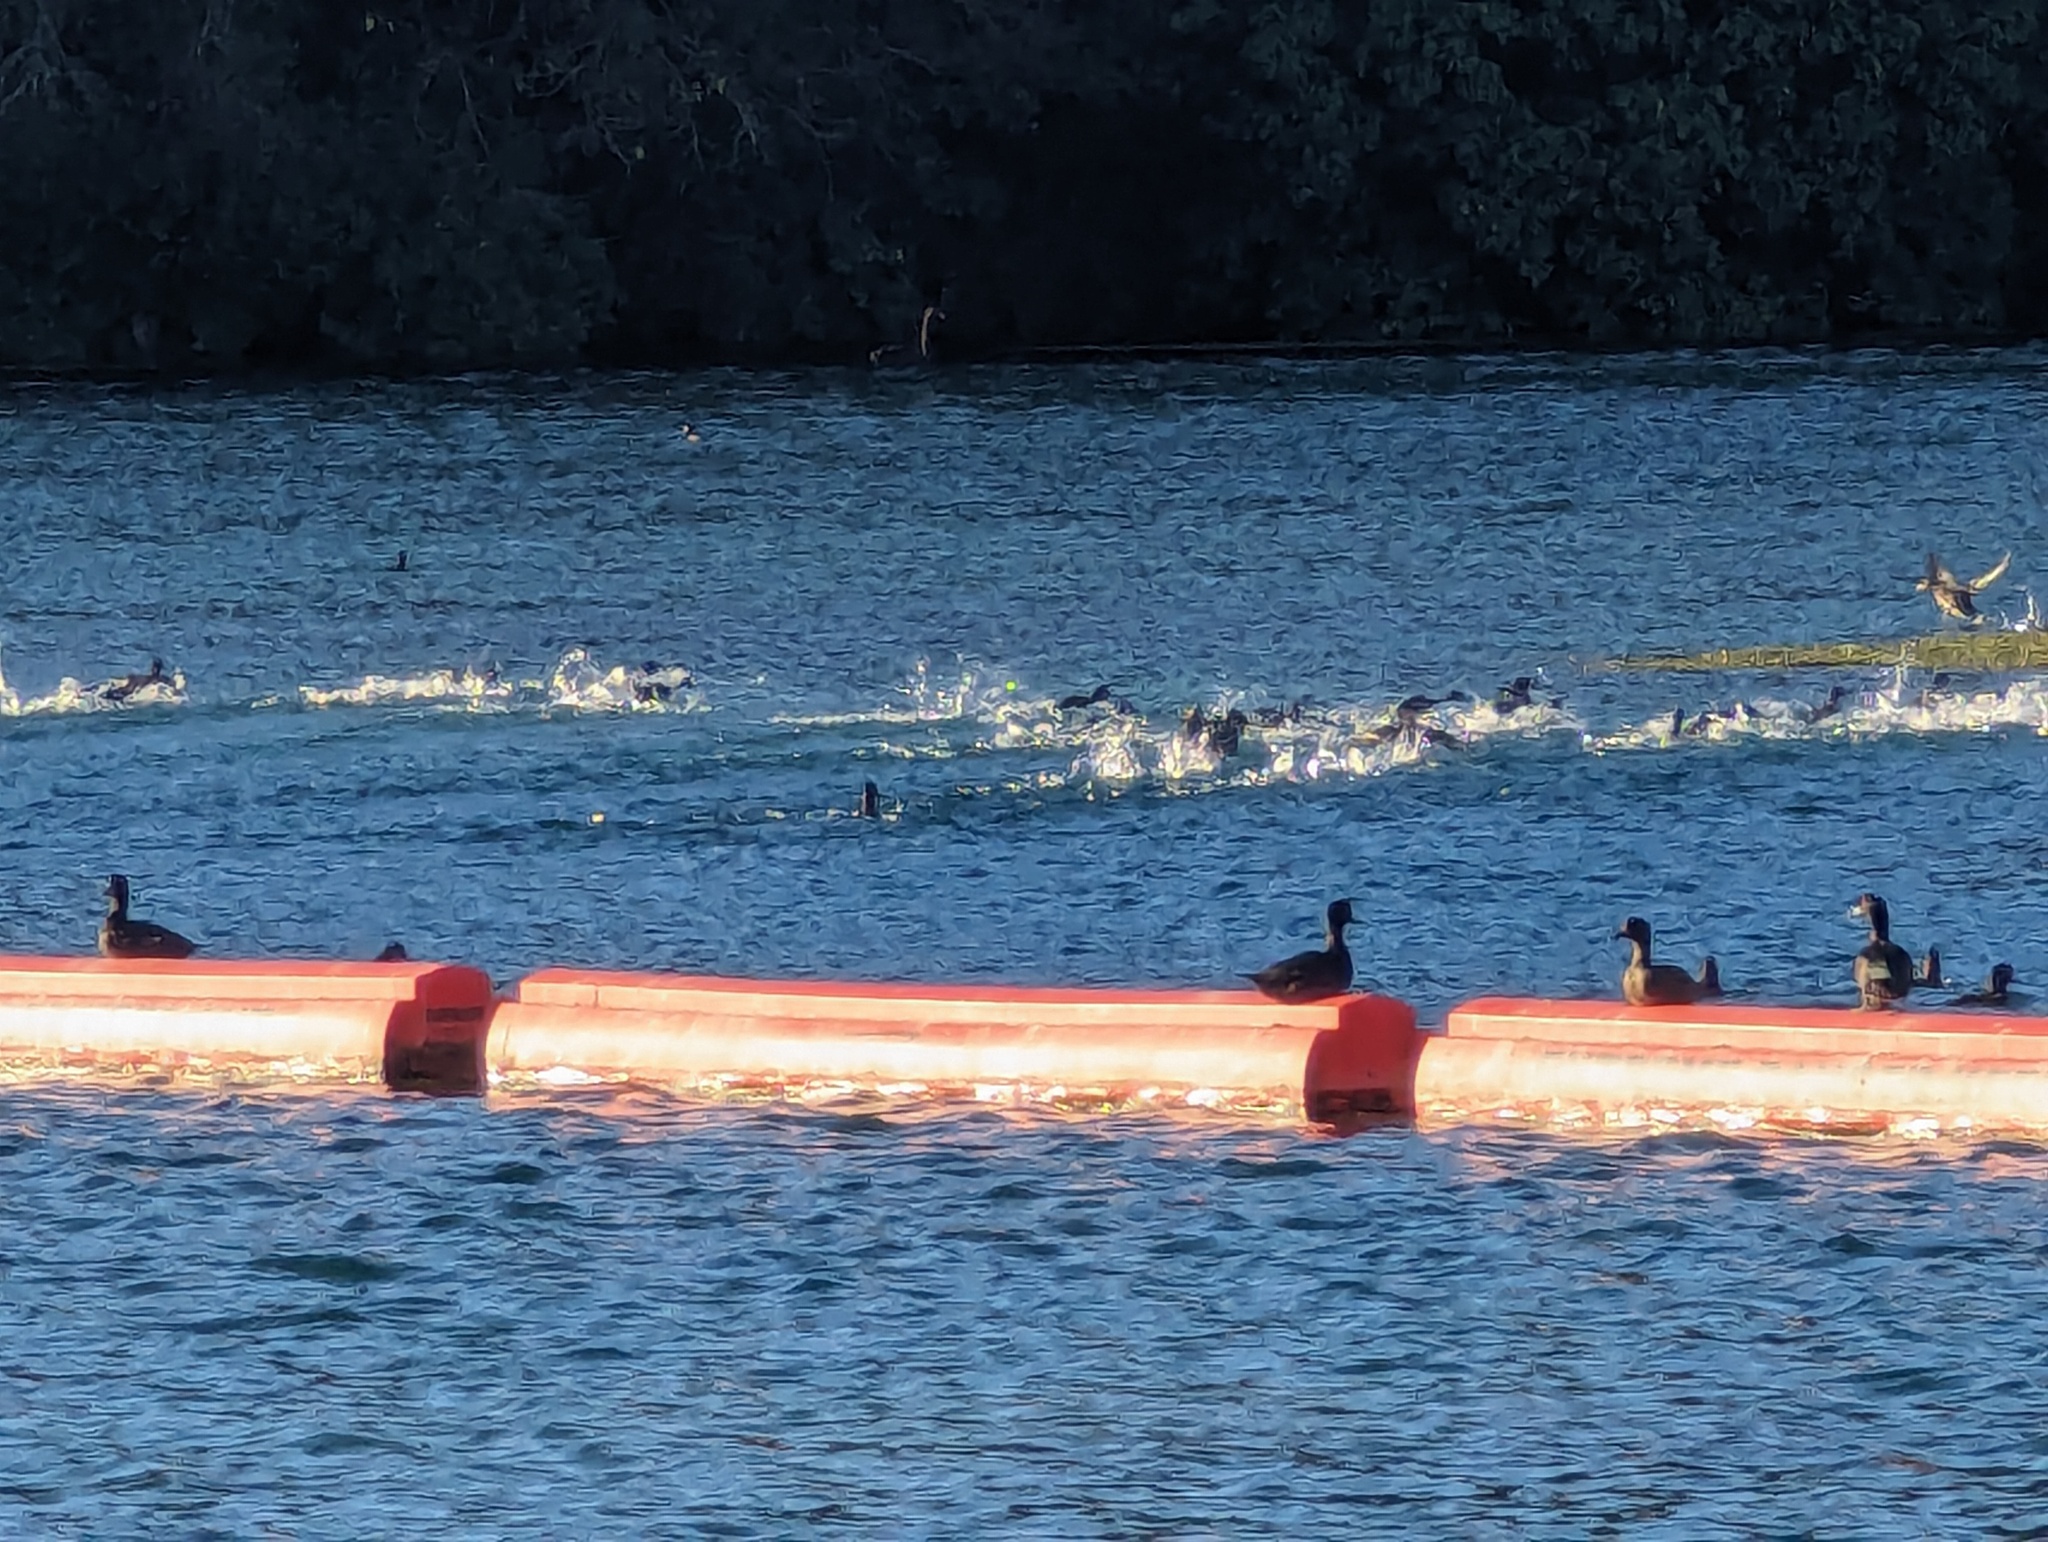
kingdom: Animalia
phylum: Chordata
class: Aves
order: Anseriformes
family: Anatidae
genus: Aythya
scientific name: Aythya novaeseelandiae
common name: New zealand scaup
